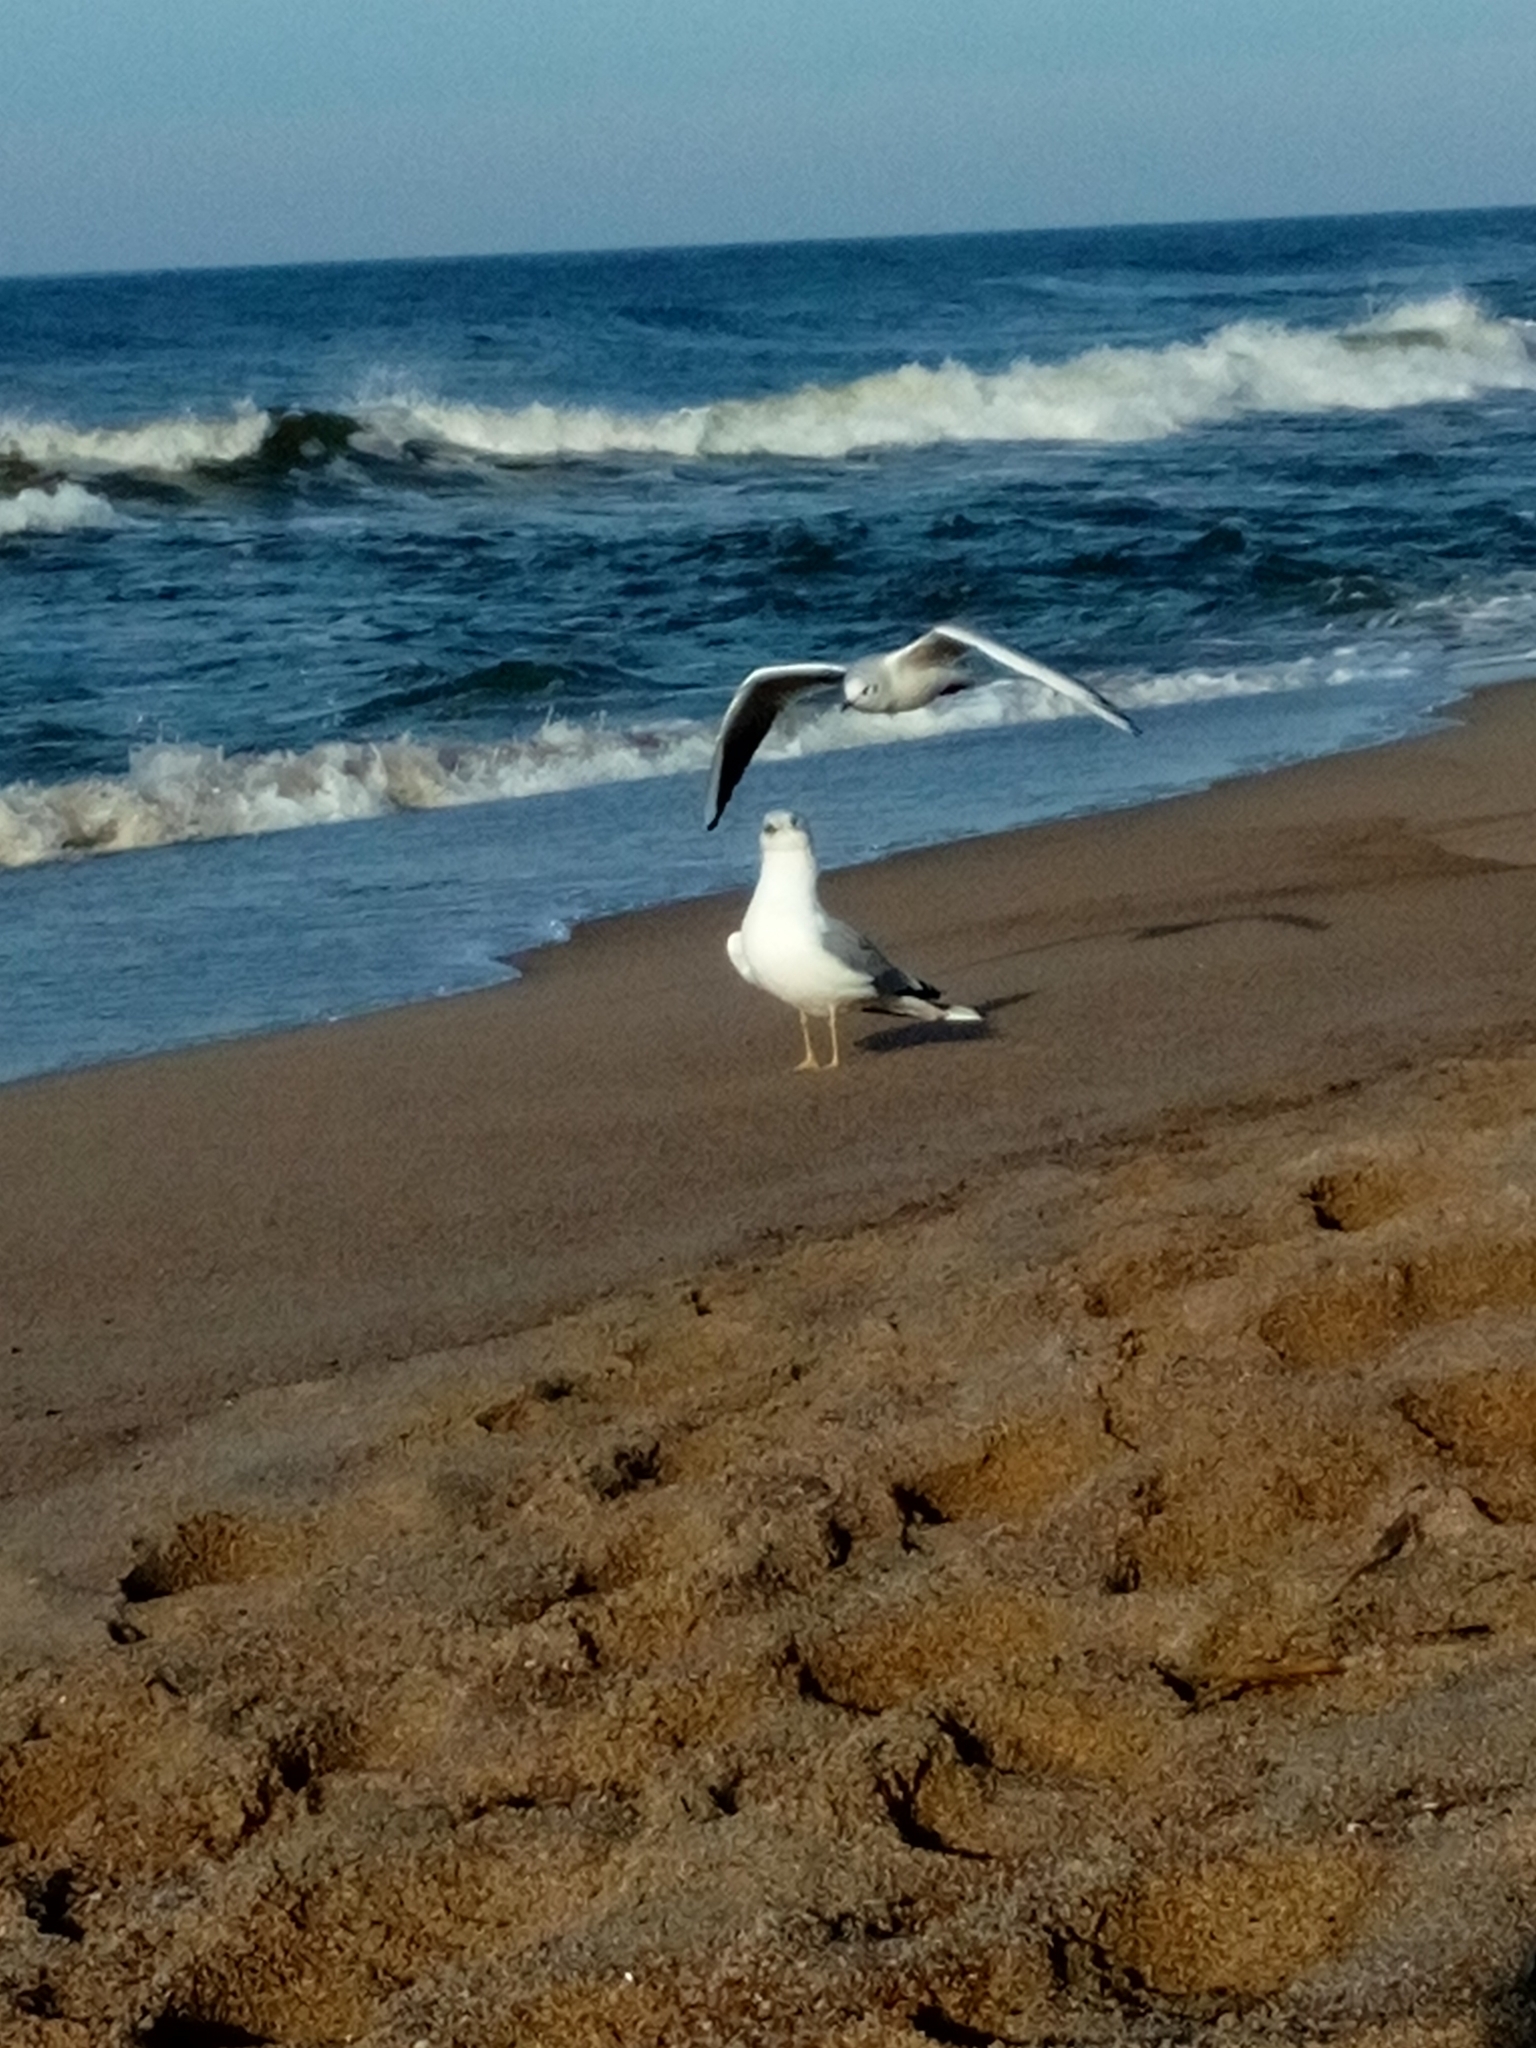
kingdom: Animalia
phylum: Chordata
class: Aves
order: Charadriiformes
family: Laridae
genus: Larus
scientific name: Larus canus
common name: Mew gull
